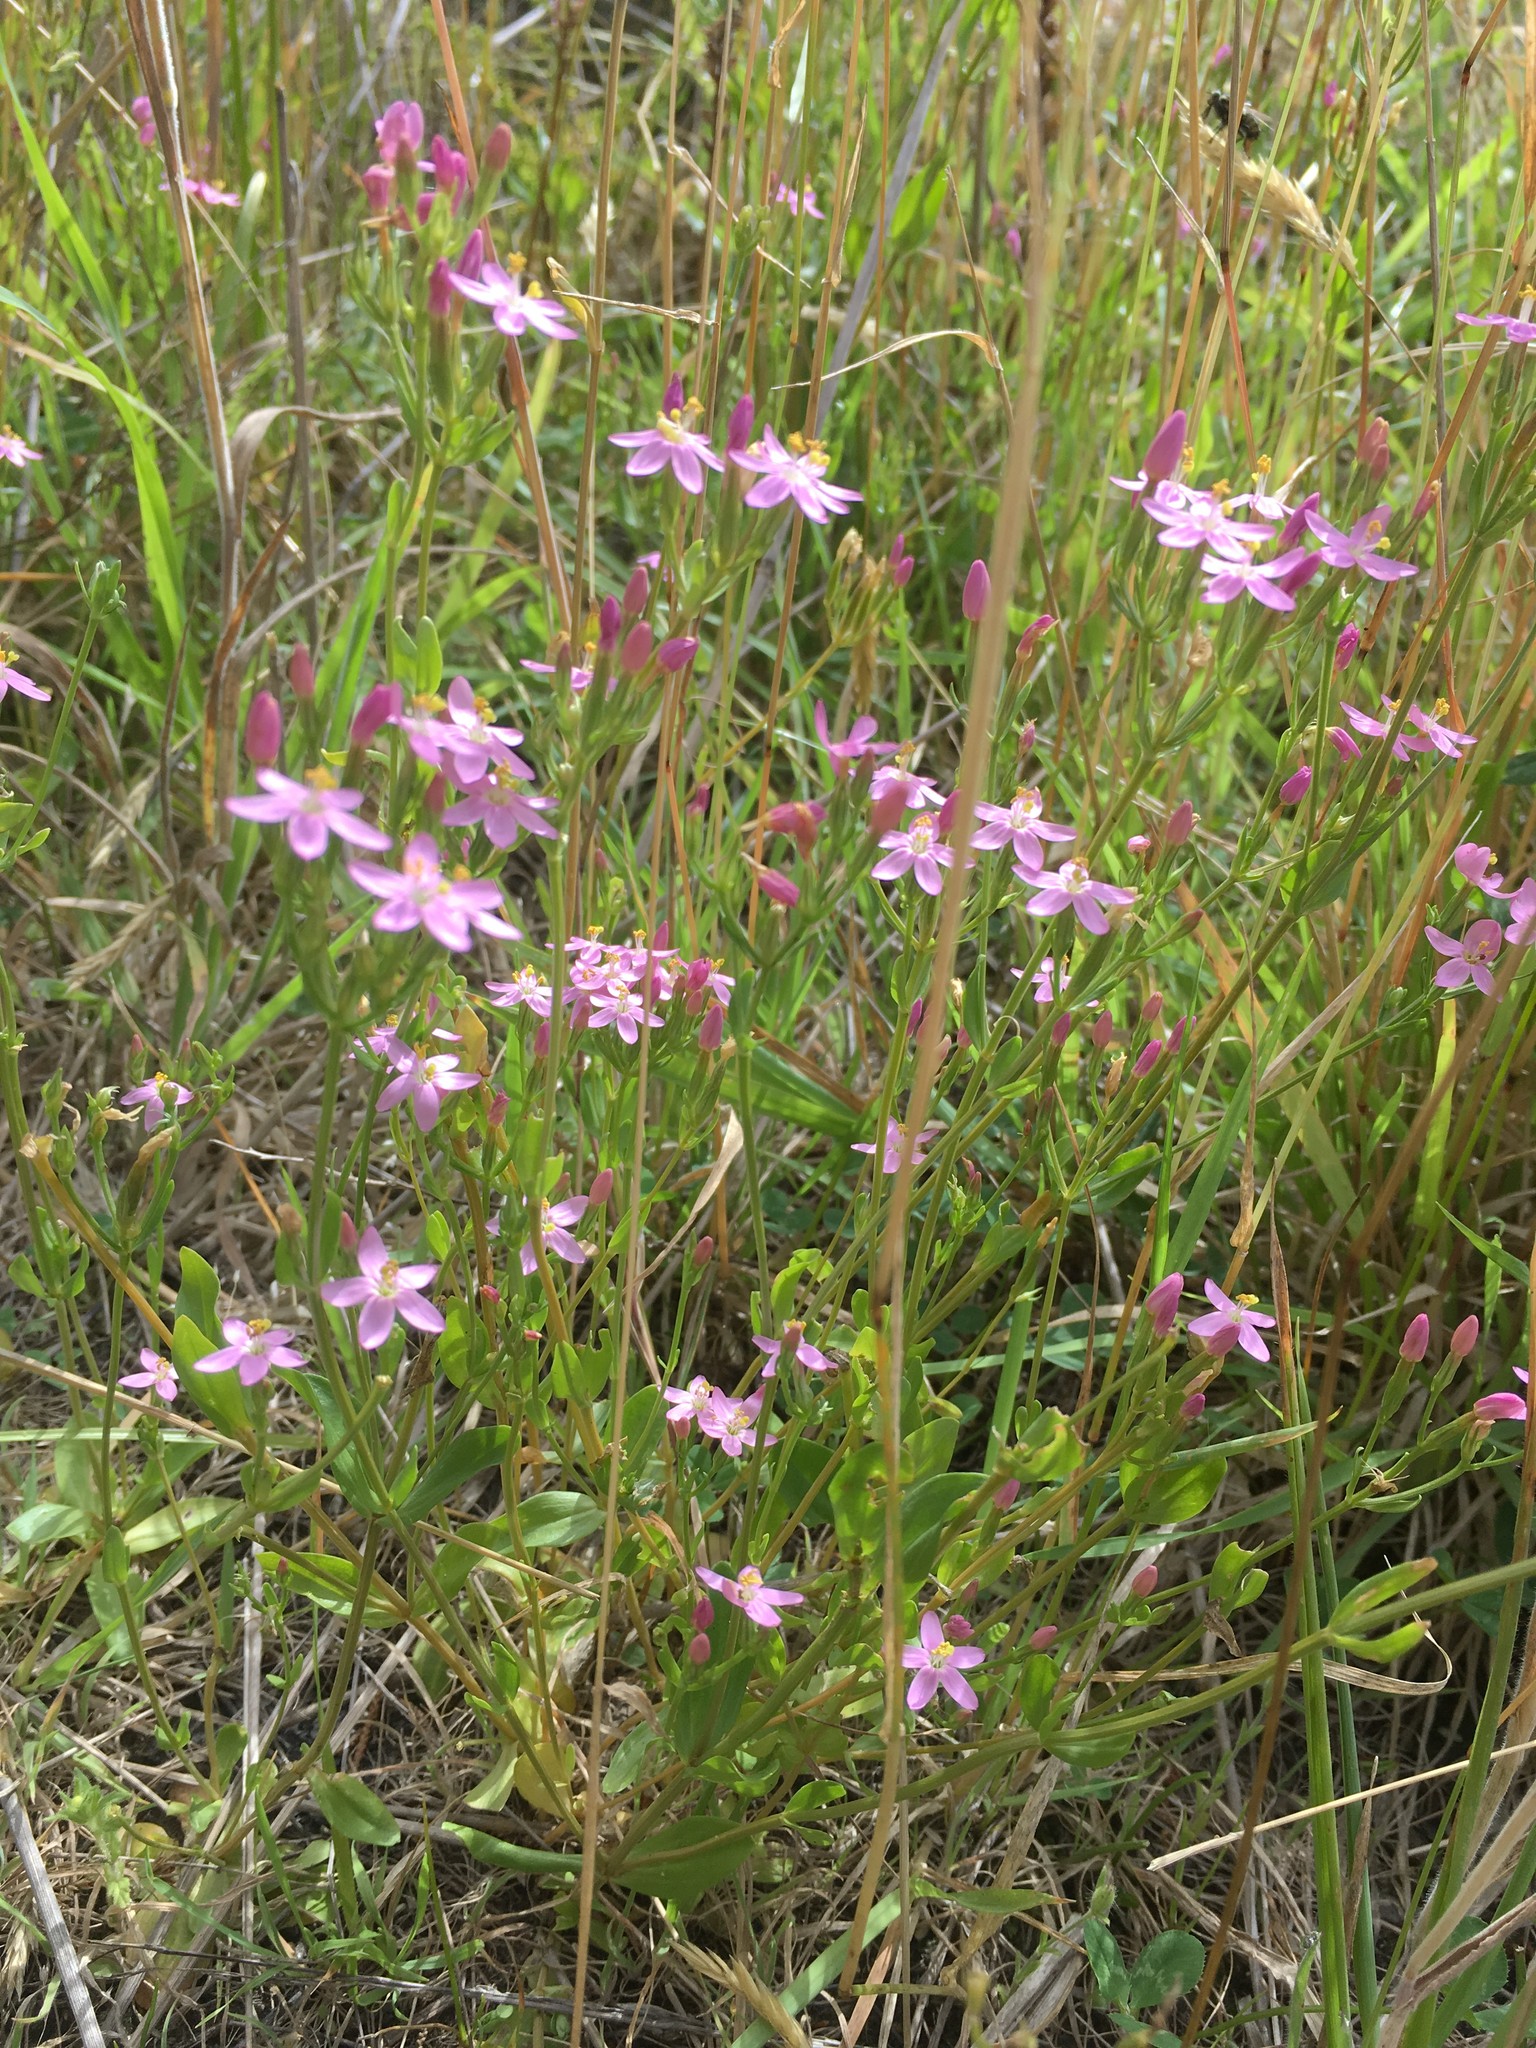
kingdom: Plantae
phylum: Tracheophyta
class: Magnoliopsida
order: Gentianales
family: Gentianaceae
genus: Centaurium
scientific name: Centaurium erythraea
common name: Common centaury
